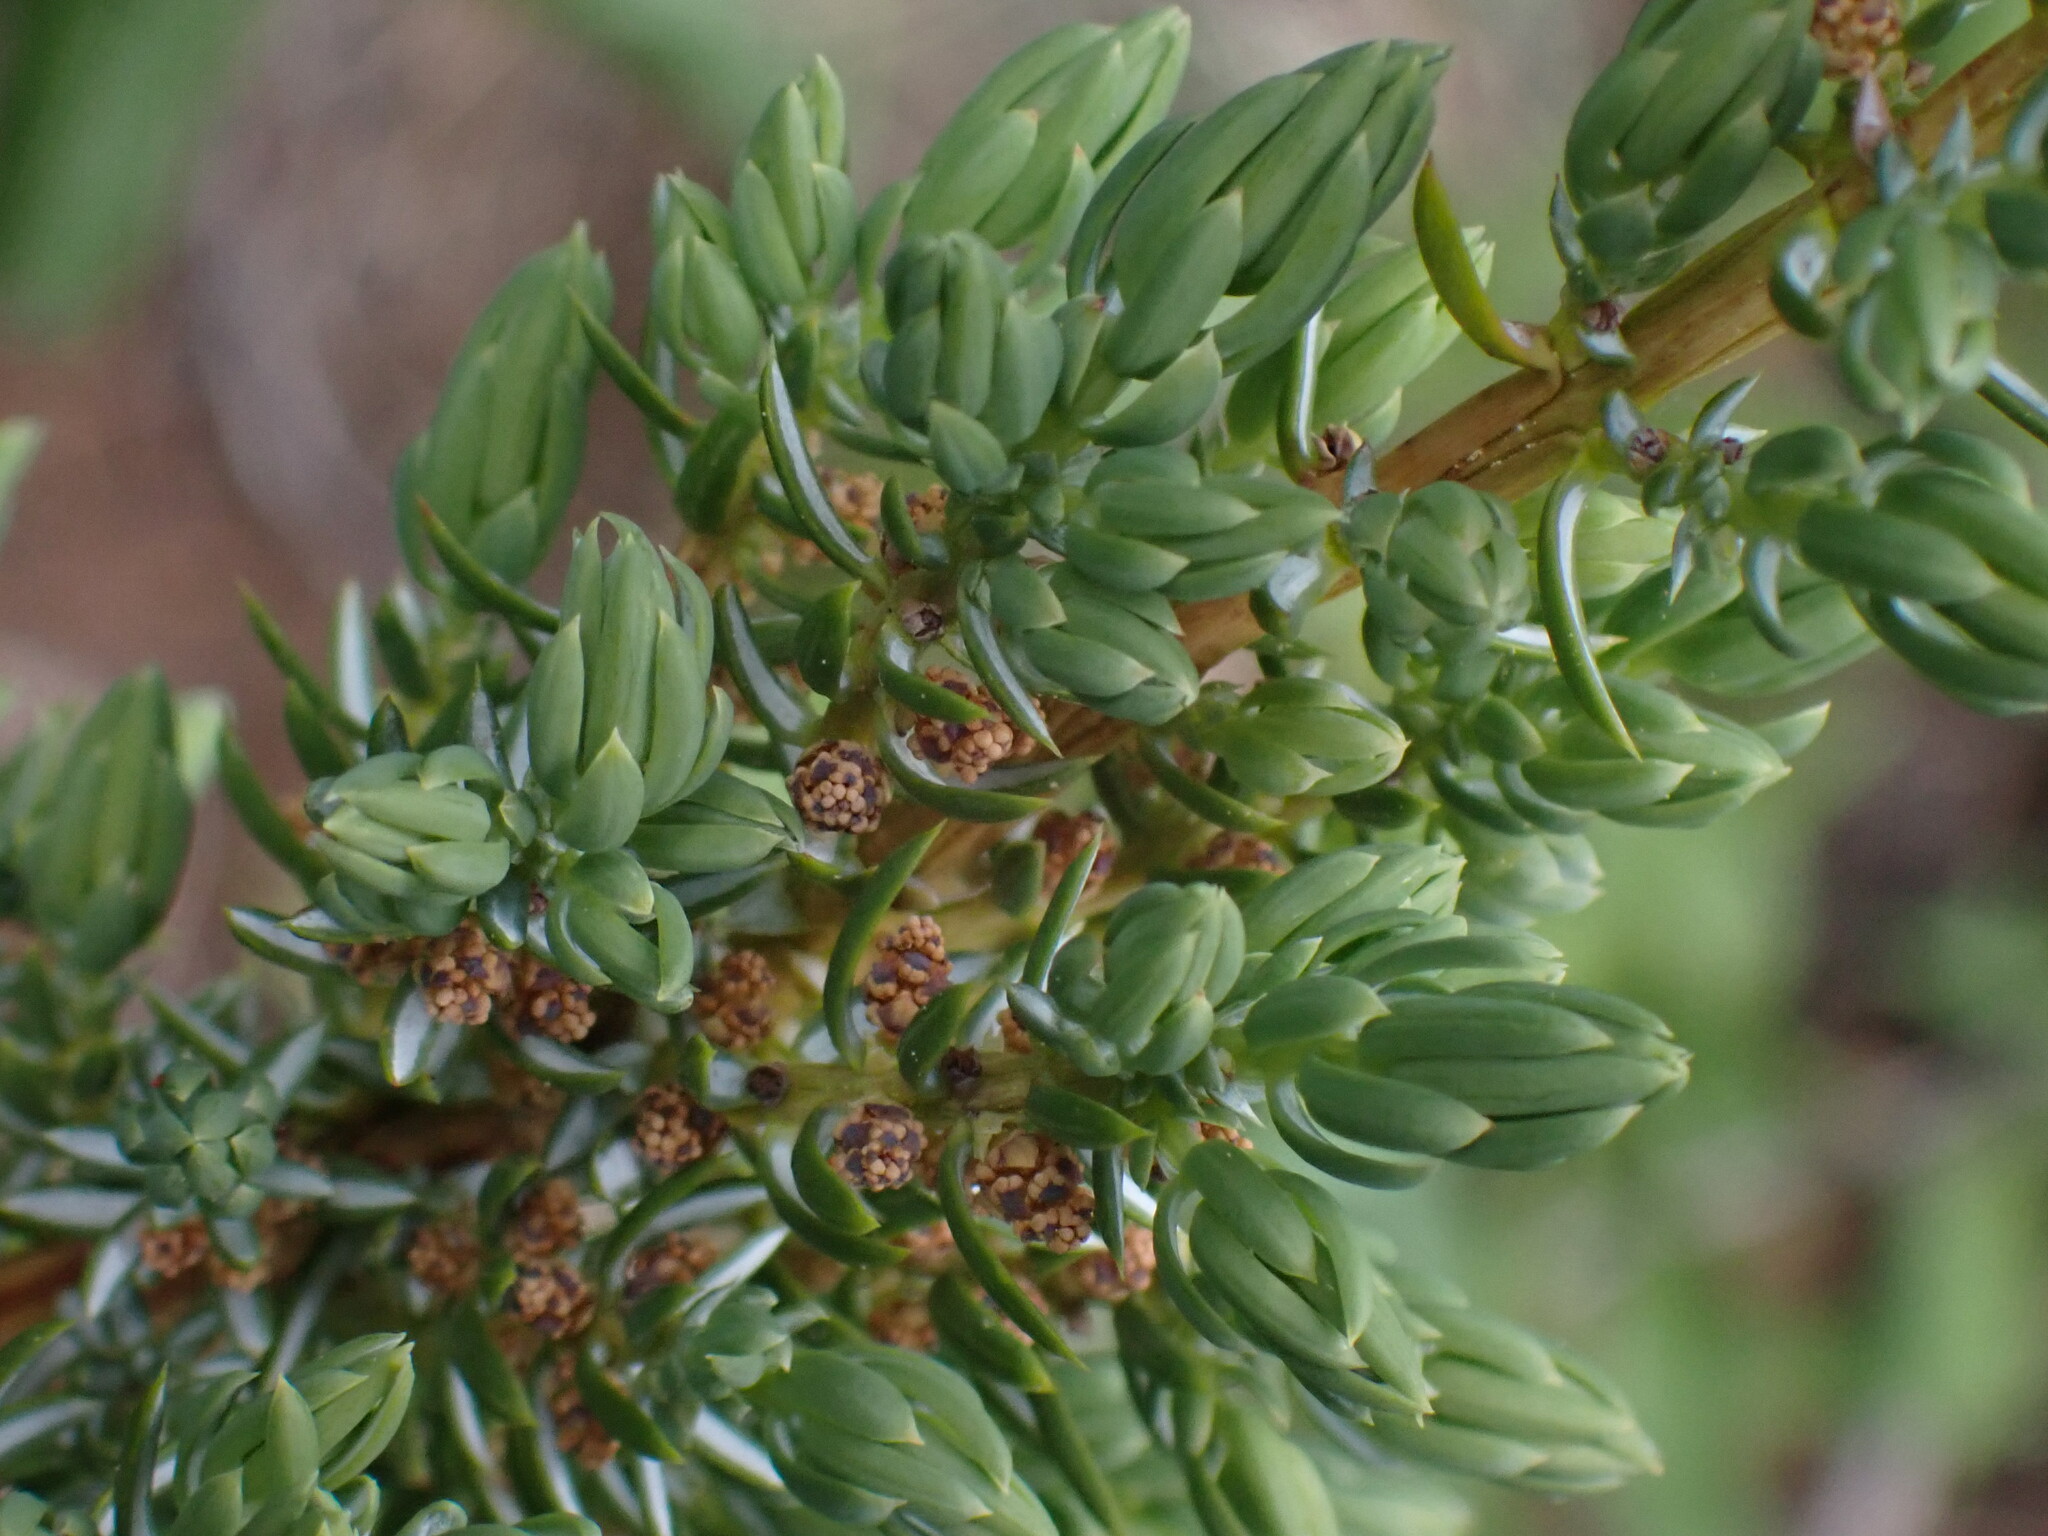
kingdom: Plantae
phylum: Tracheophyta
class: Pinopsida
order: Pinales
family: Cupressaceae
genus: Juniperus
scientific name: Juniperus communis
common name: Common juniper
